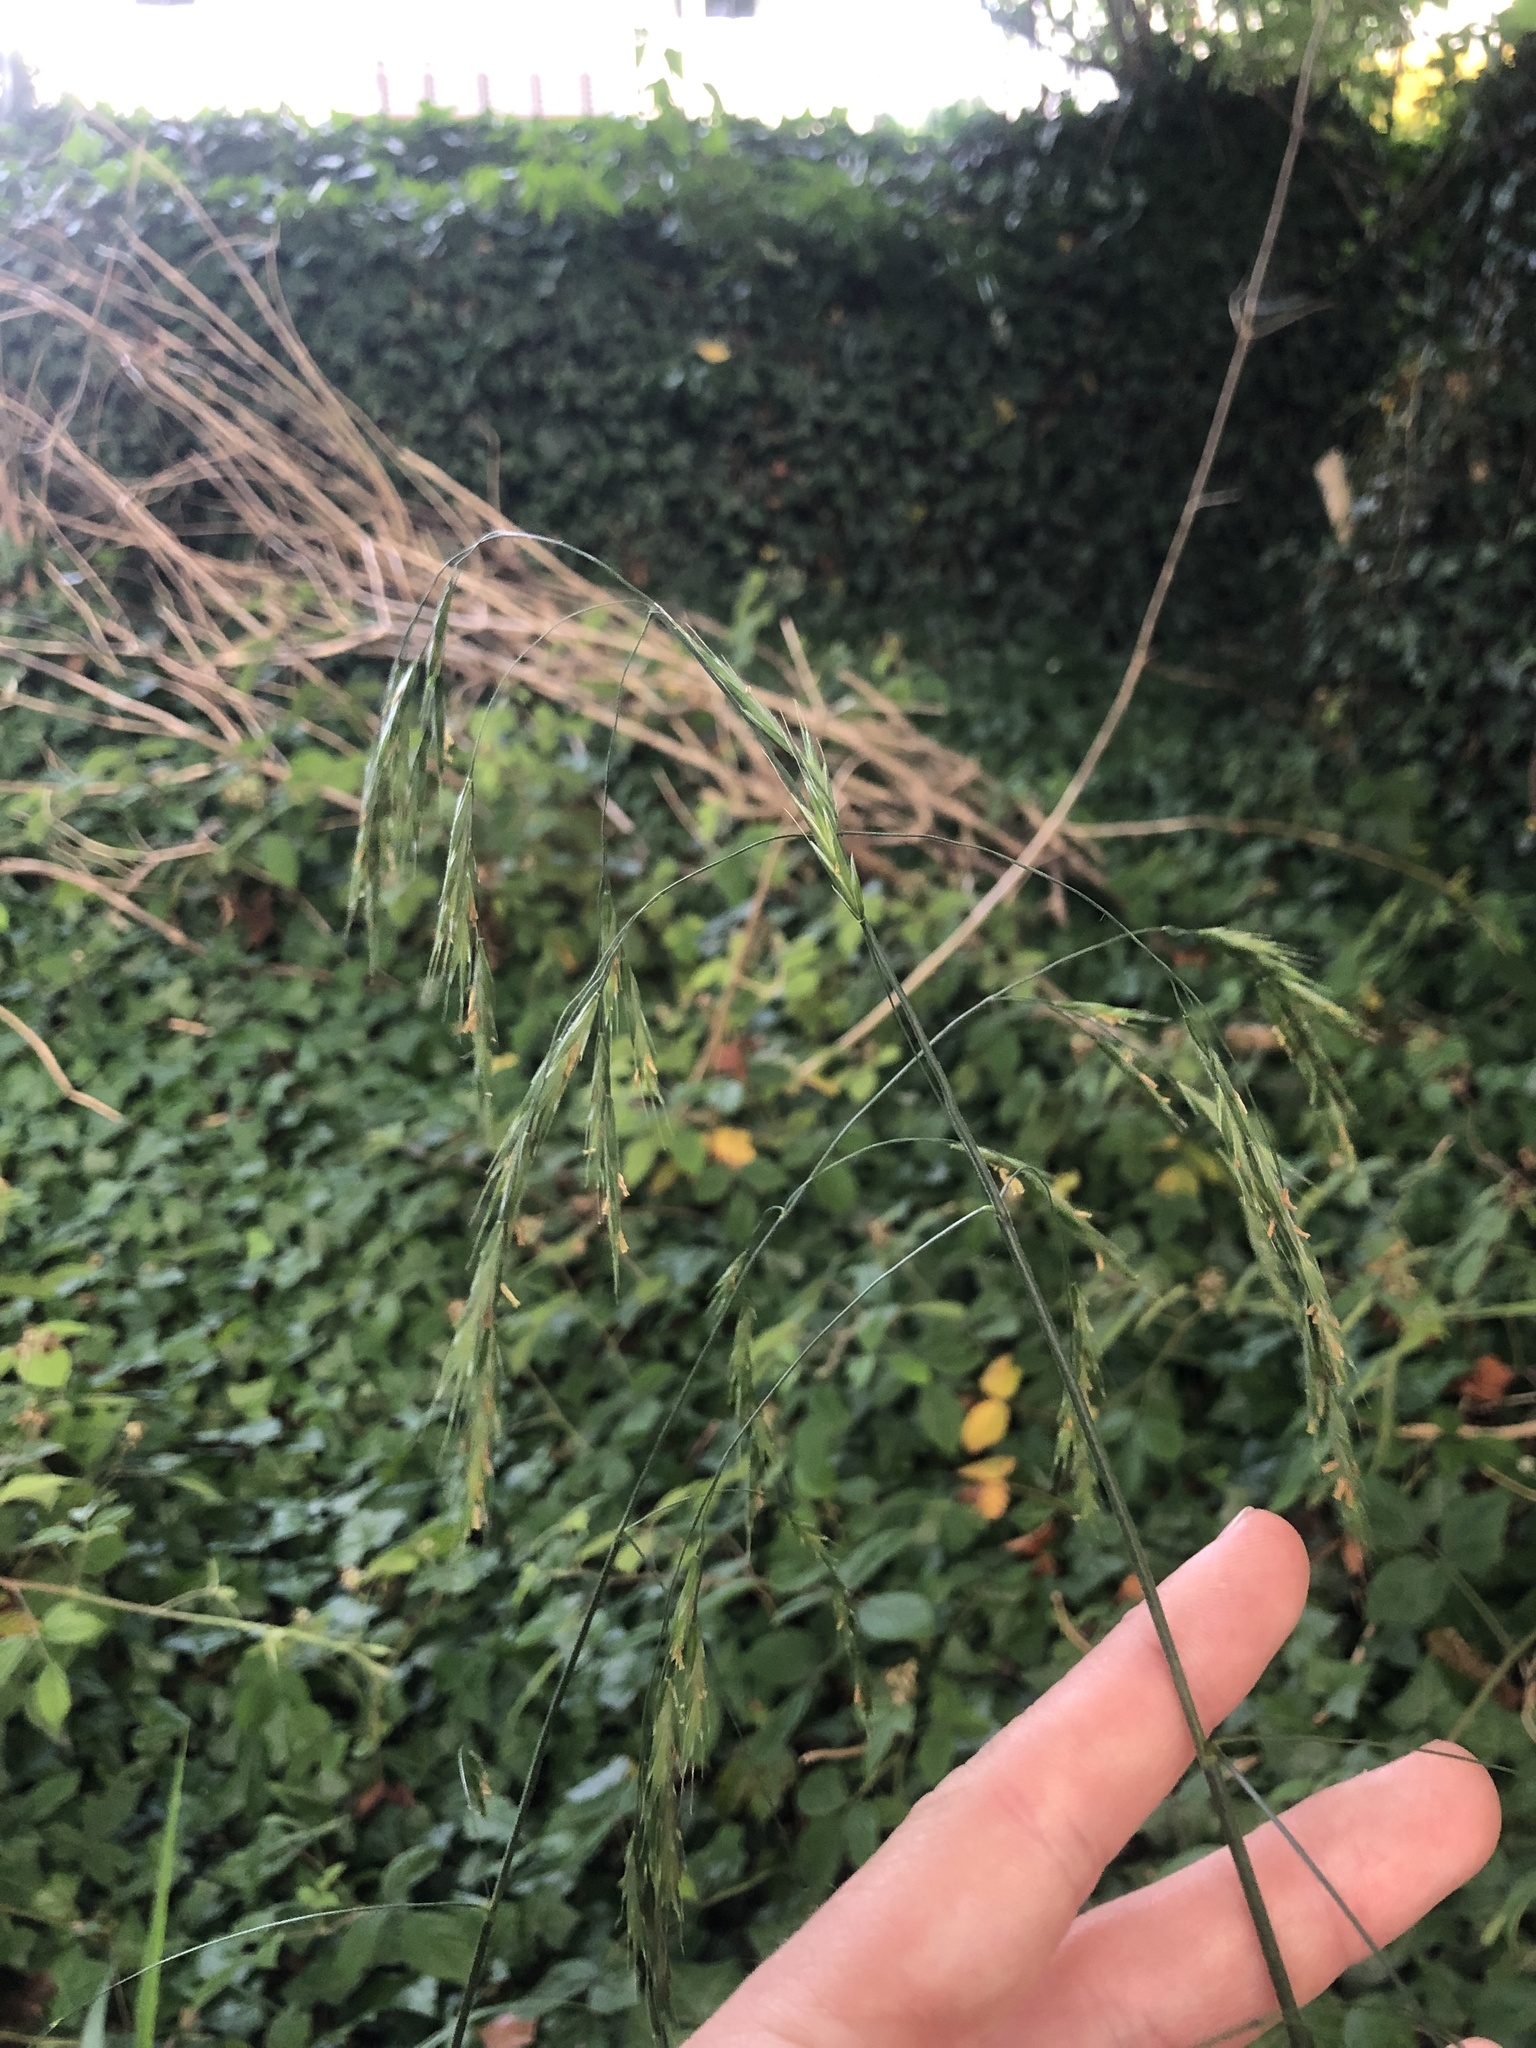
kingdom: Plantae
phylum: Tracheophyta
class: Liliopsida
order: Poales
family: Poaceae
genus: Bromus
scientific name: Bromus ramosus
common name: Hairy brome
